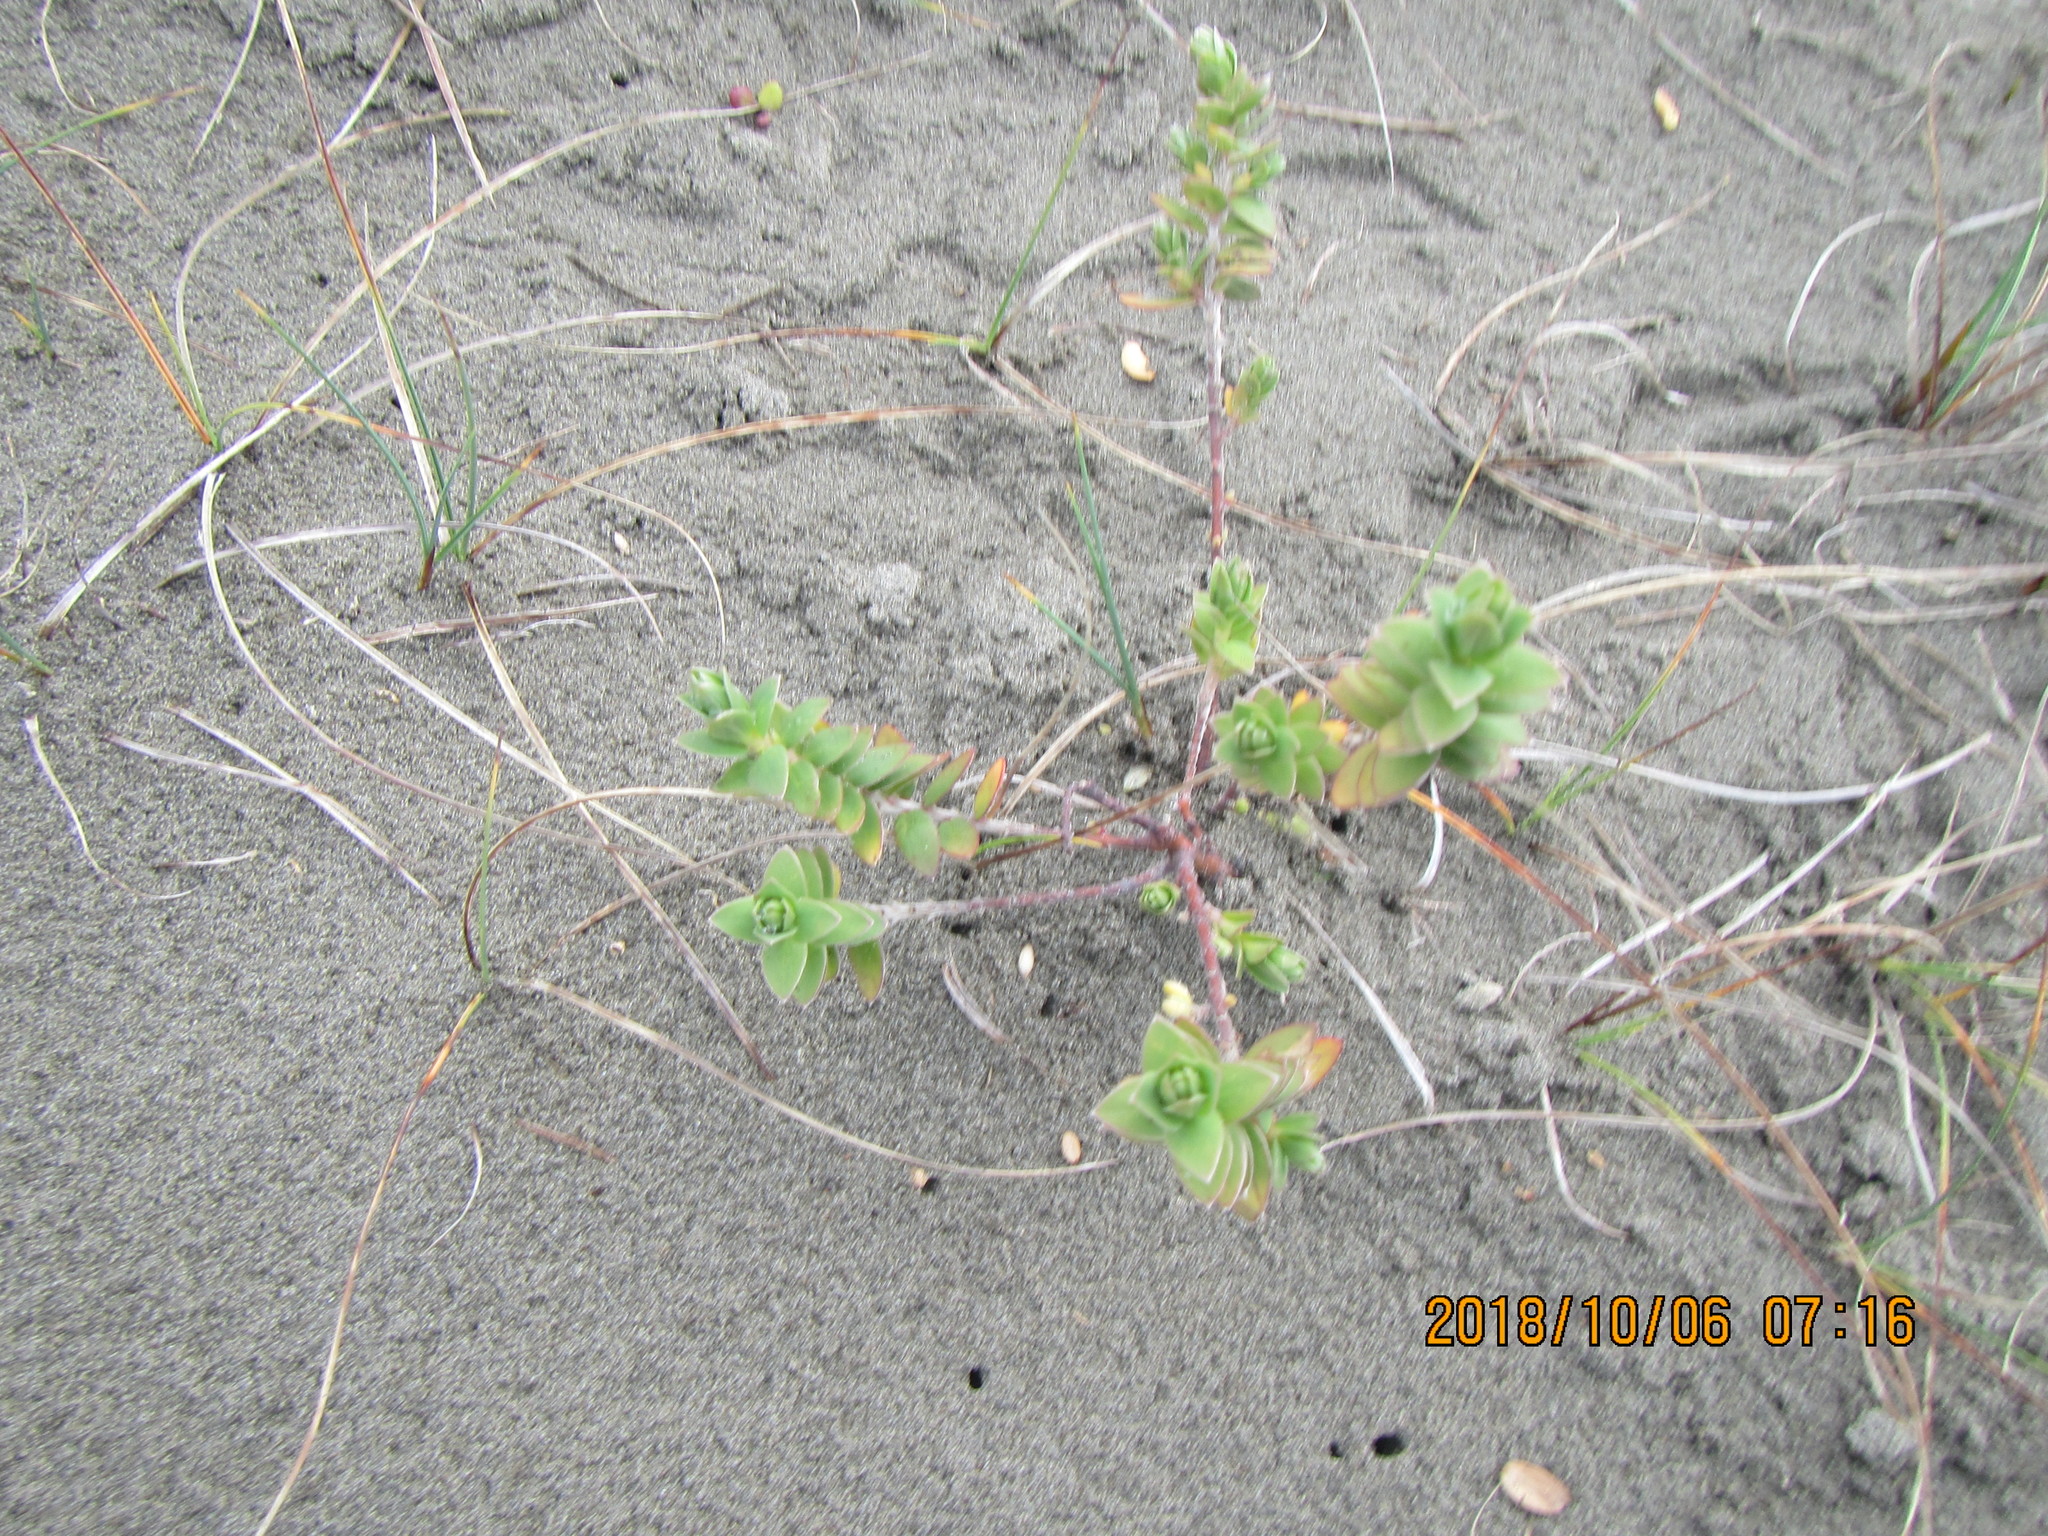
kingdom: Plantae
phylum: Tracheophyta
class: Magnoliopsida
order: Malvales
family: Thymelaeaceae
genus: Pimelea
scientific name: Pimelea villosa
